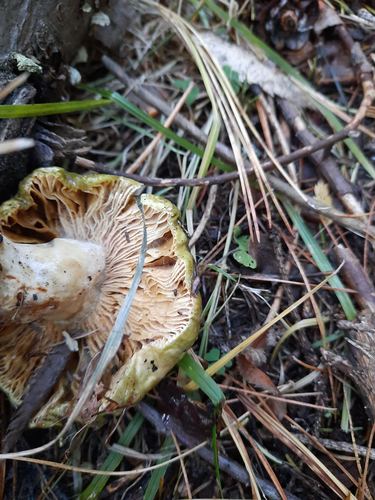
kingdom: Fungi
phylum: Basidiomycota
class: Agaricomycetes
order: Russulales
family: Russulaceae
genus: Russula
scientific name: Russula
